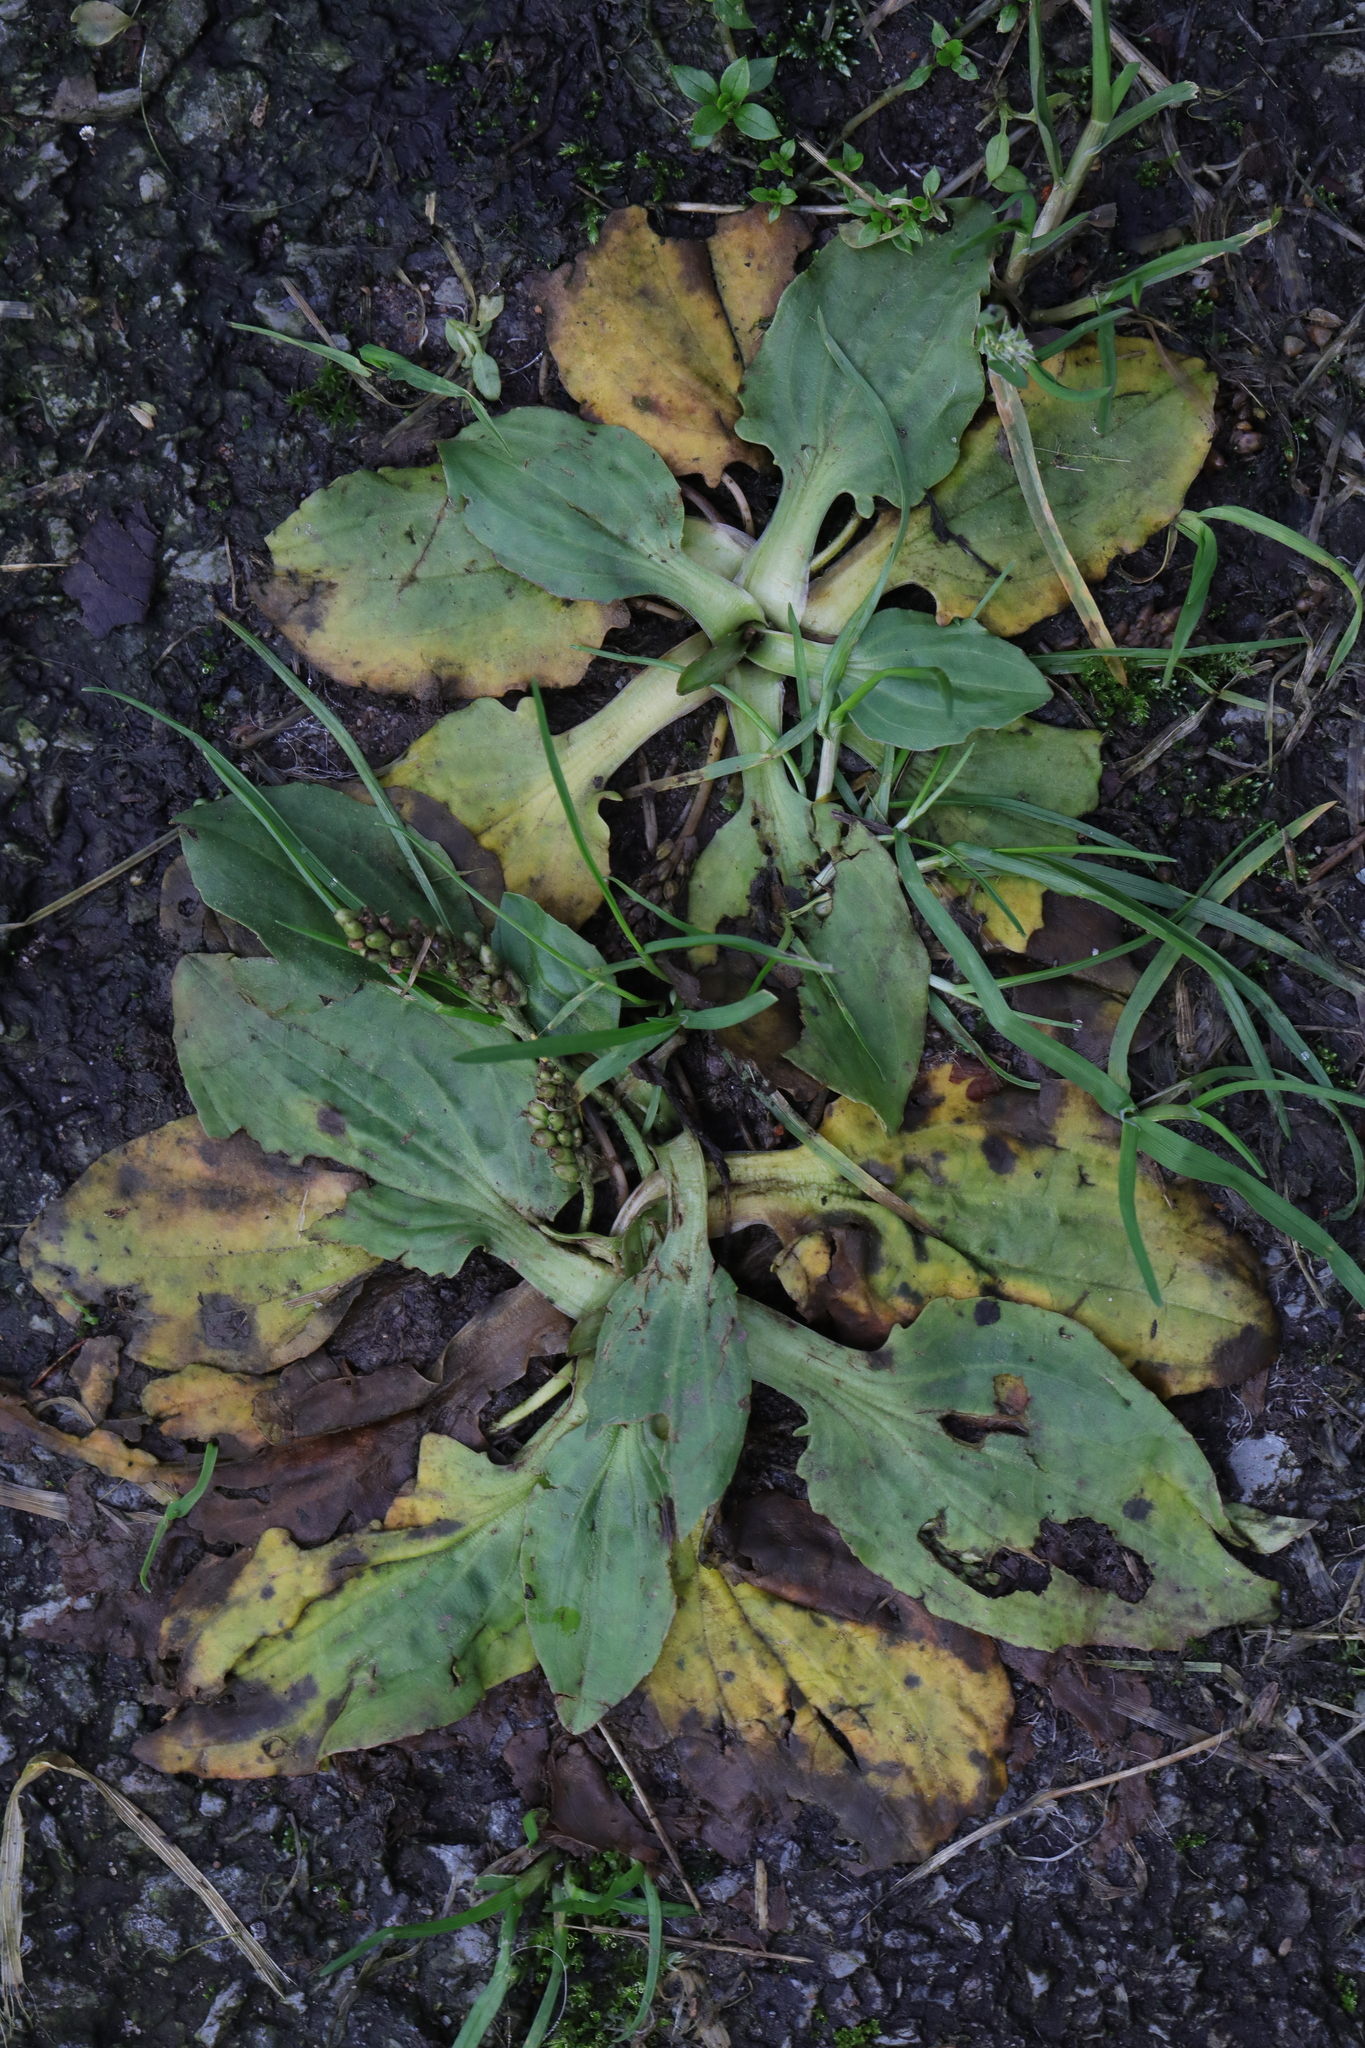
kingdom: Plantae
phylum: Tracheophyta
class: Magnoliopsida
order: Lamiales
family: Plantaginaceae
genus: Plantago
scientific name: Plantago major
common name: Common plantain
